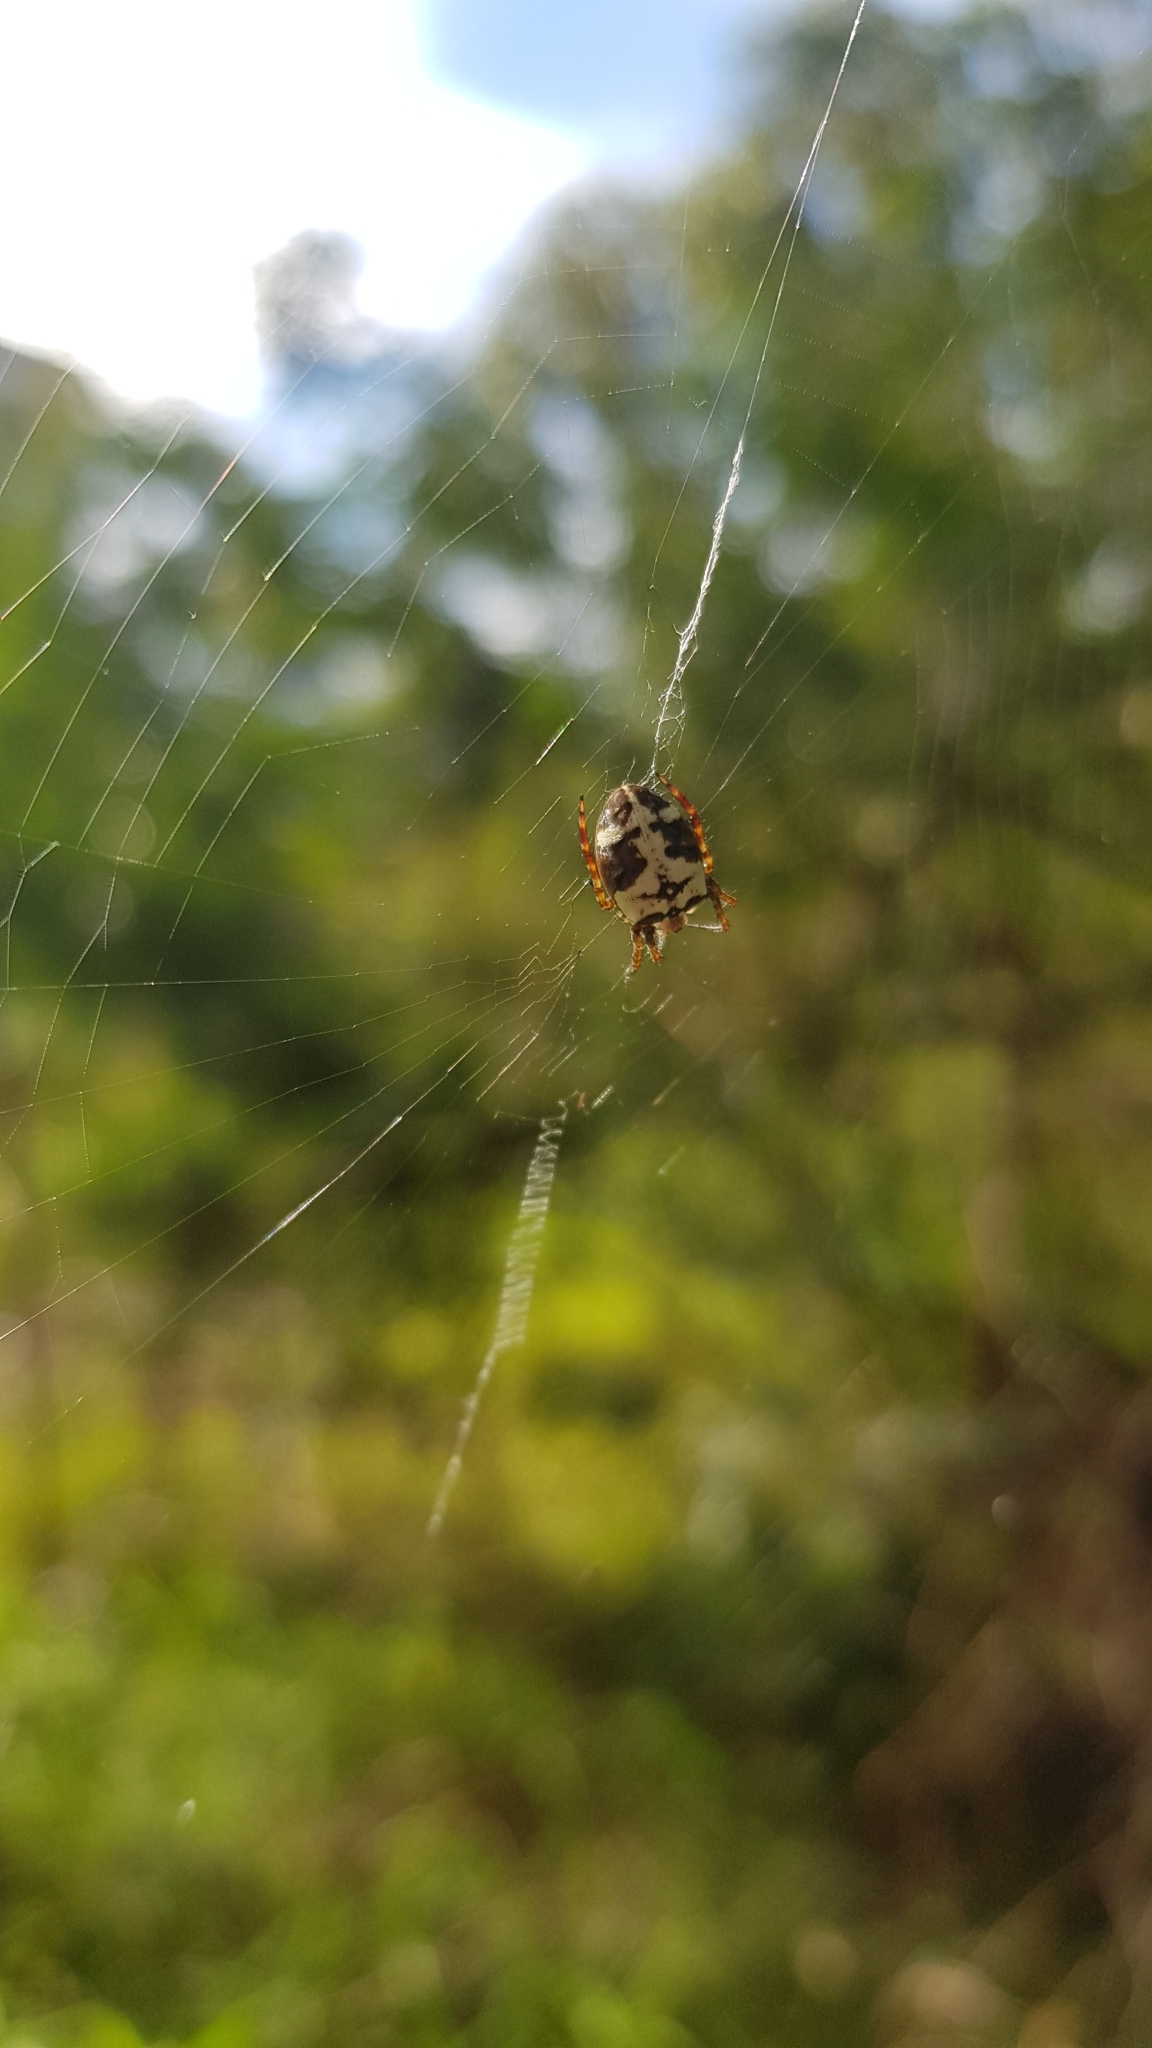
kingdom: Animalia
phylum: Arthropoda
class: Arachnida
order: Araneae
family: Araneidae
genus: Plebs
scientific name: Plebs eburnus
